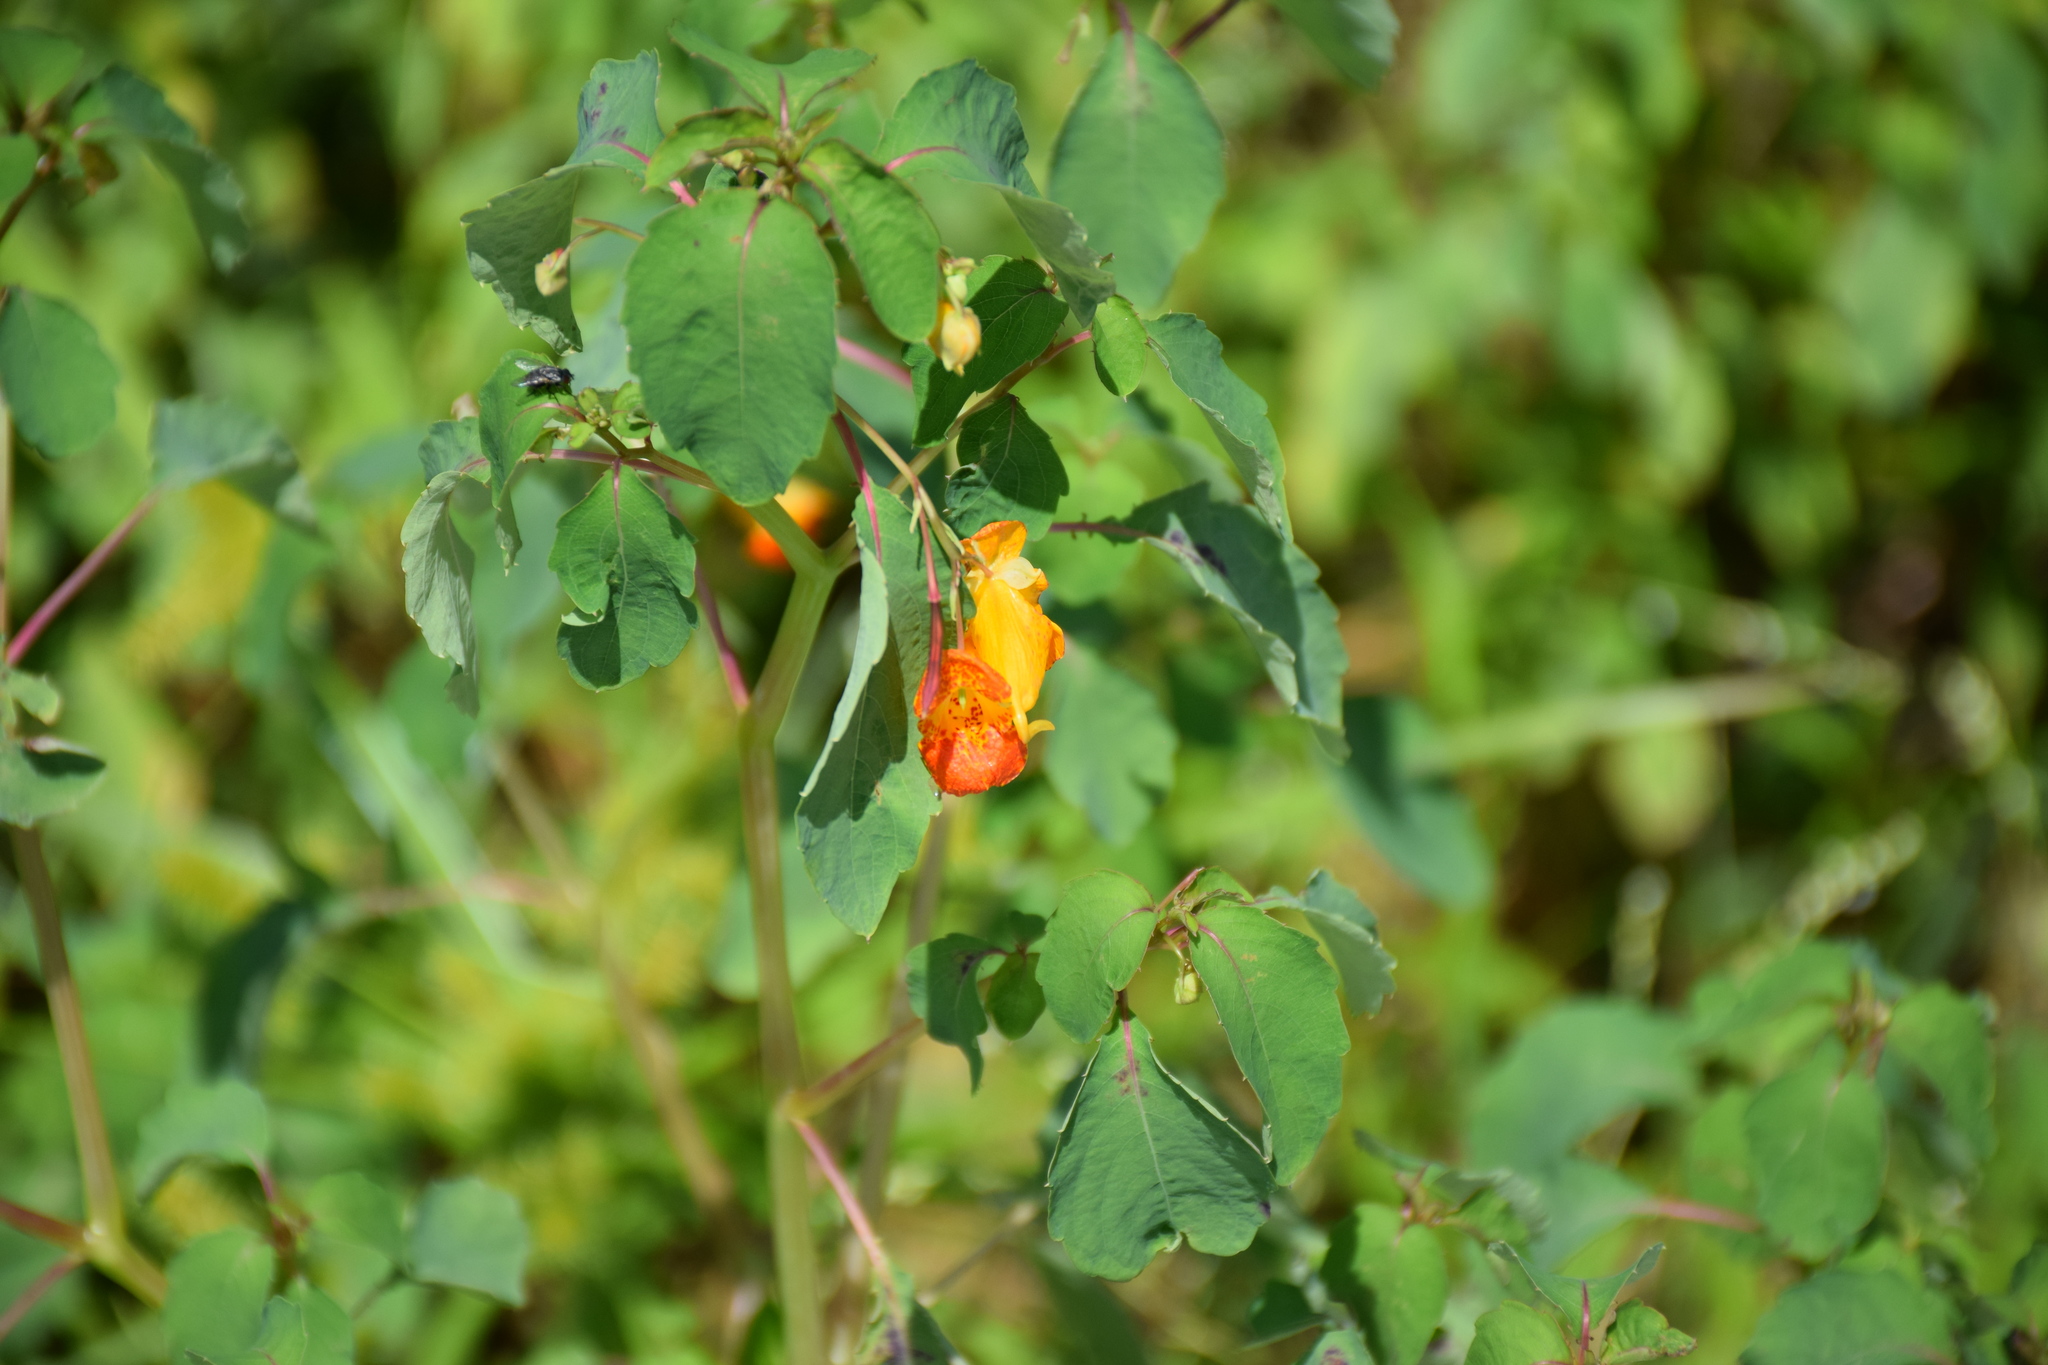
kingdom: Plantae
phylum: Tracheophyta
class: Magnoliopsida
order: Ericales
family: Balsaminaceae
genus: Impatiens
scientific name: Impatiens capensis
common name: Orange balsam
